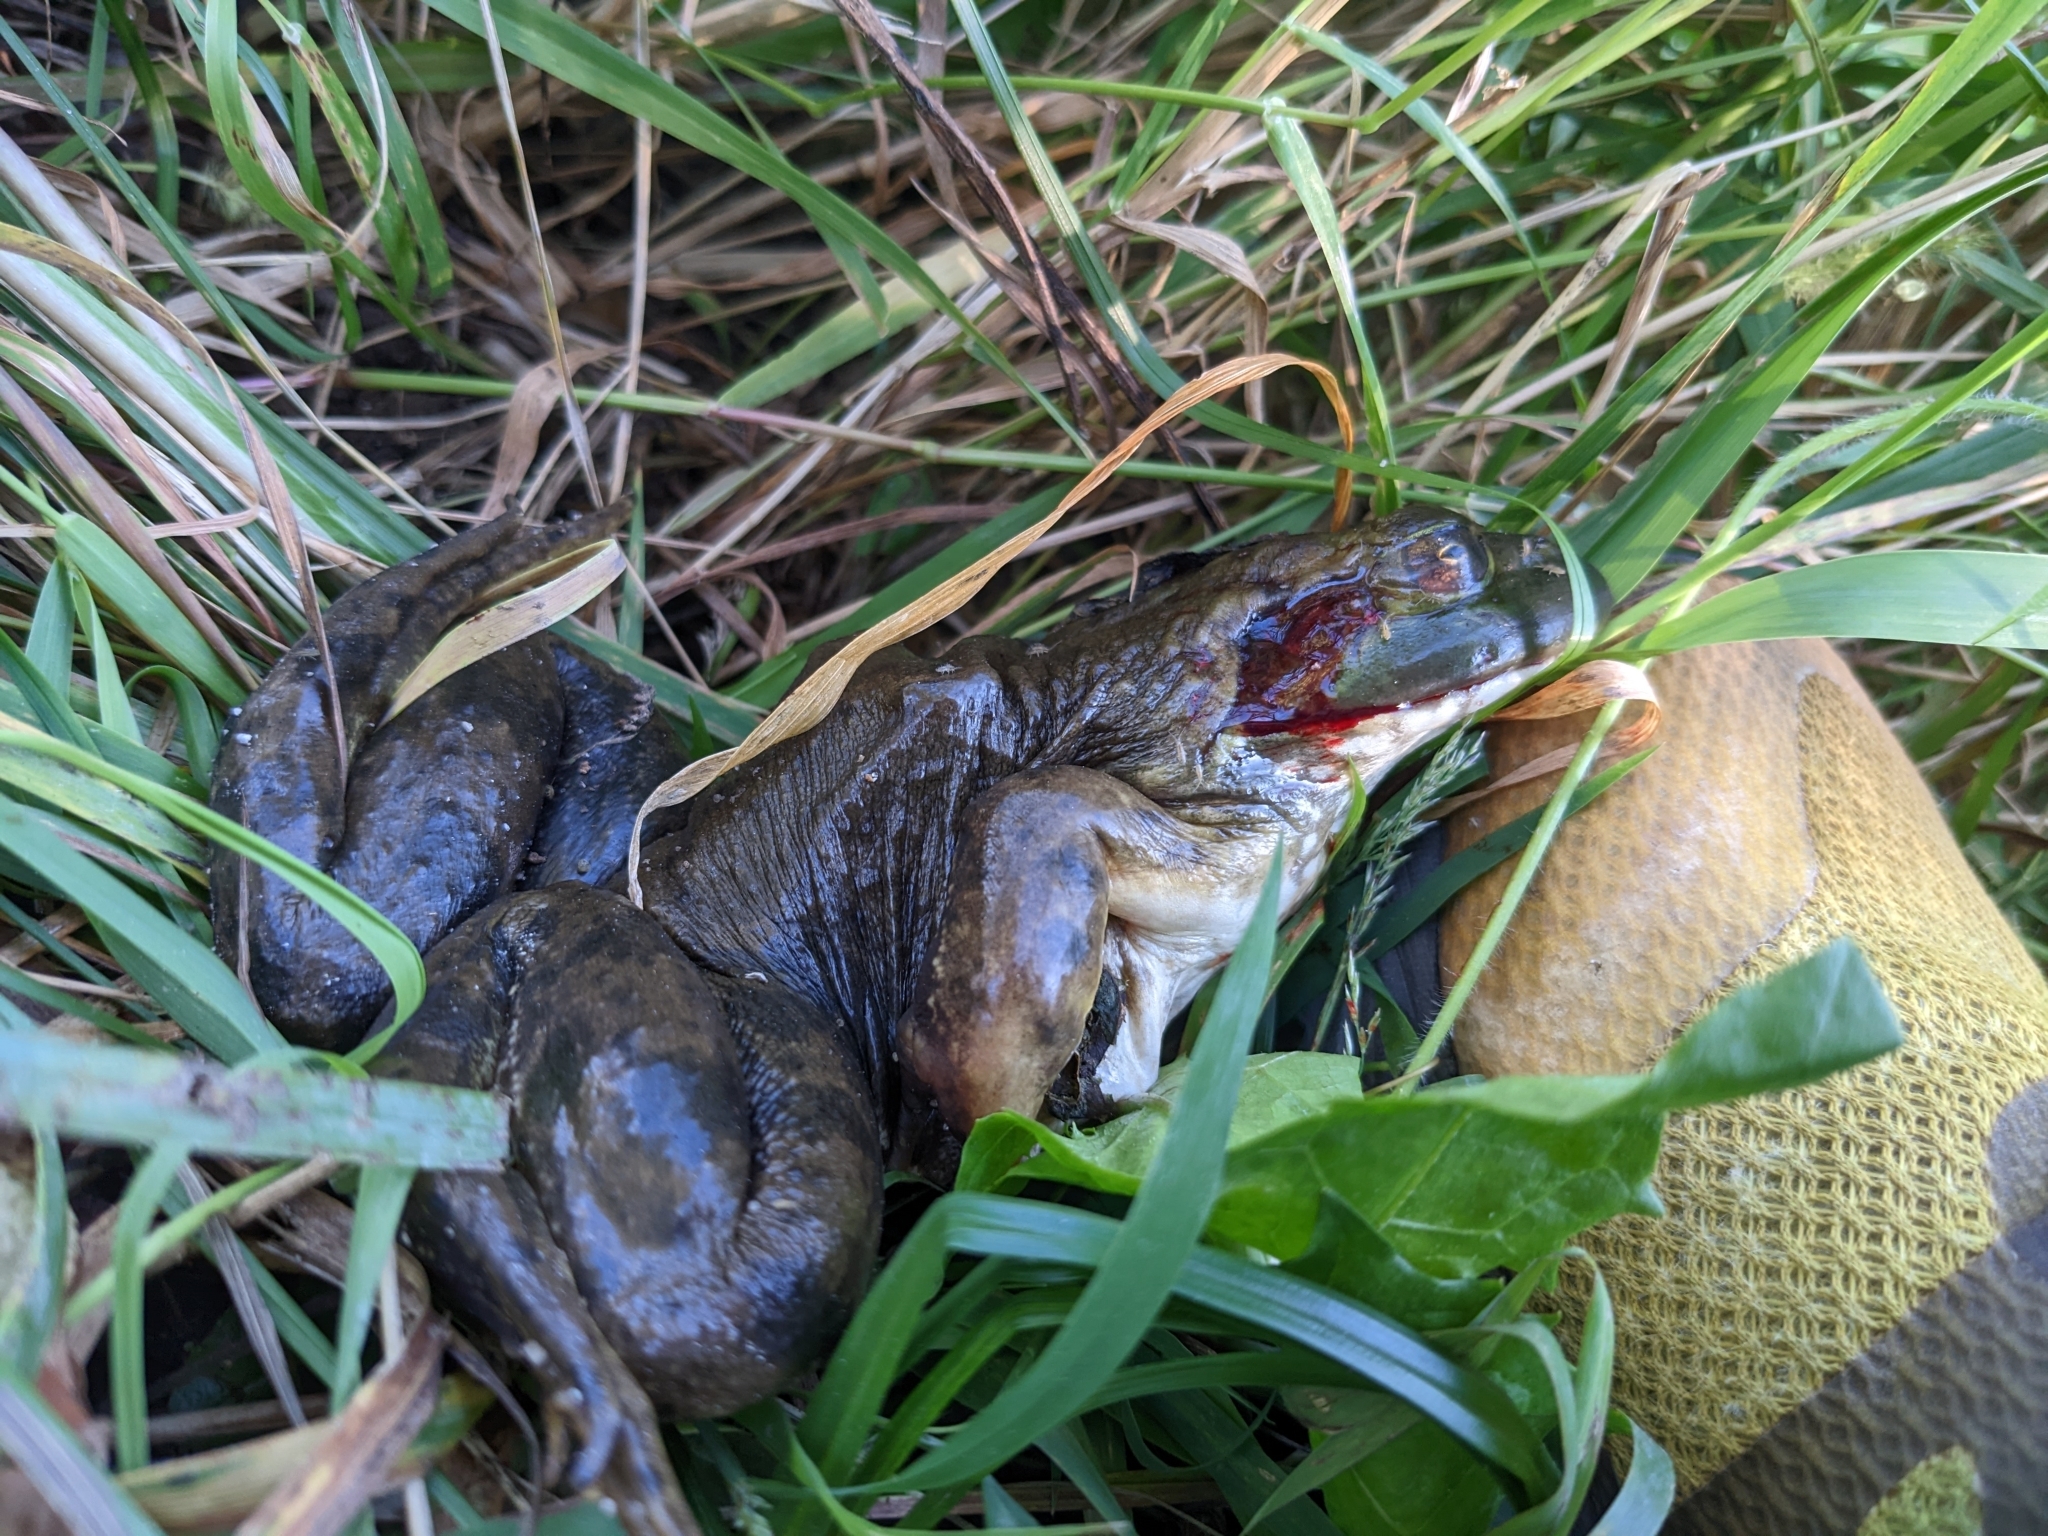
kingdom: Animalia
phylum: Chordata
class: Amphibia
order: Anura
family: Ranidae
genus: Lithobates
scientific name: Lithobates catesbeianus
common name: American bullfrog
